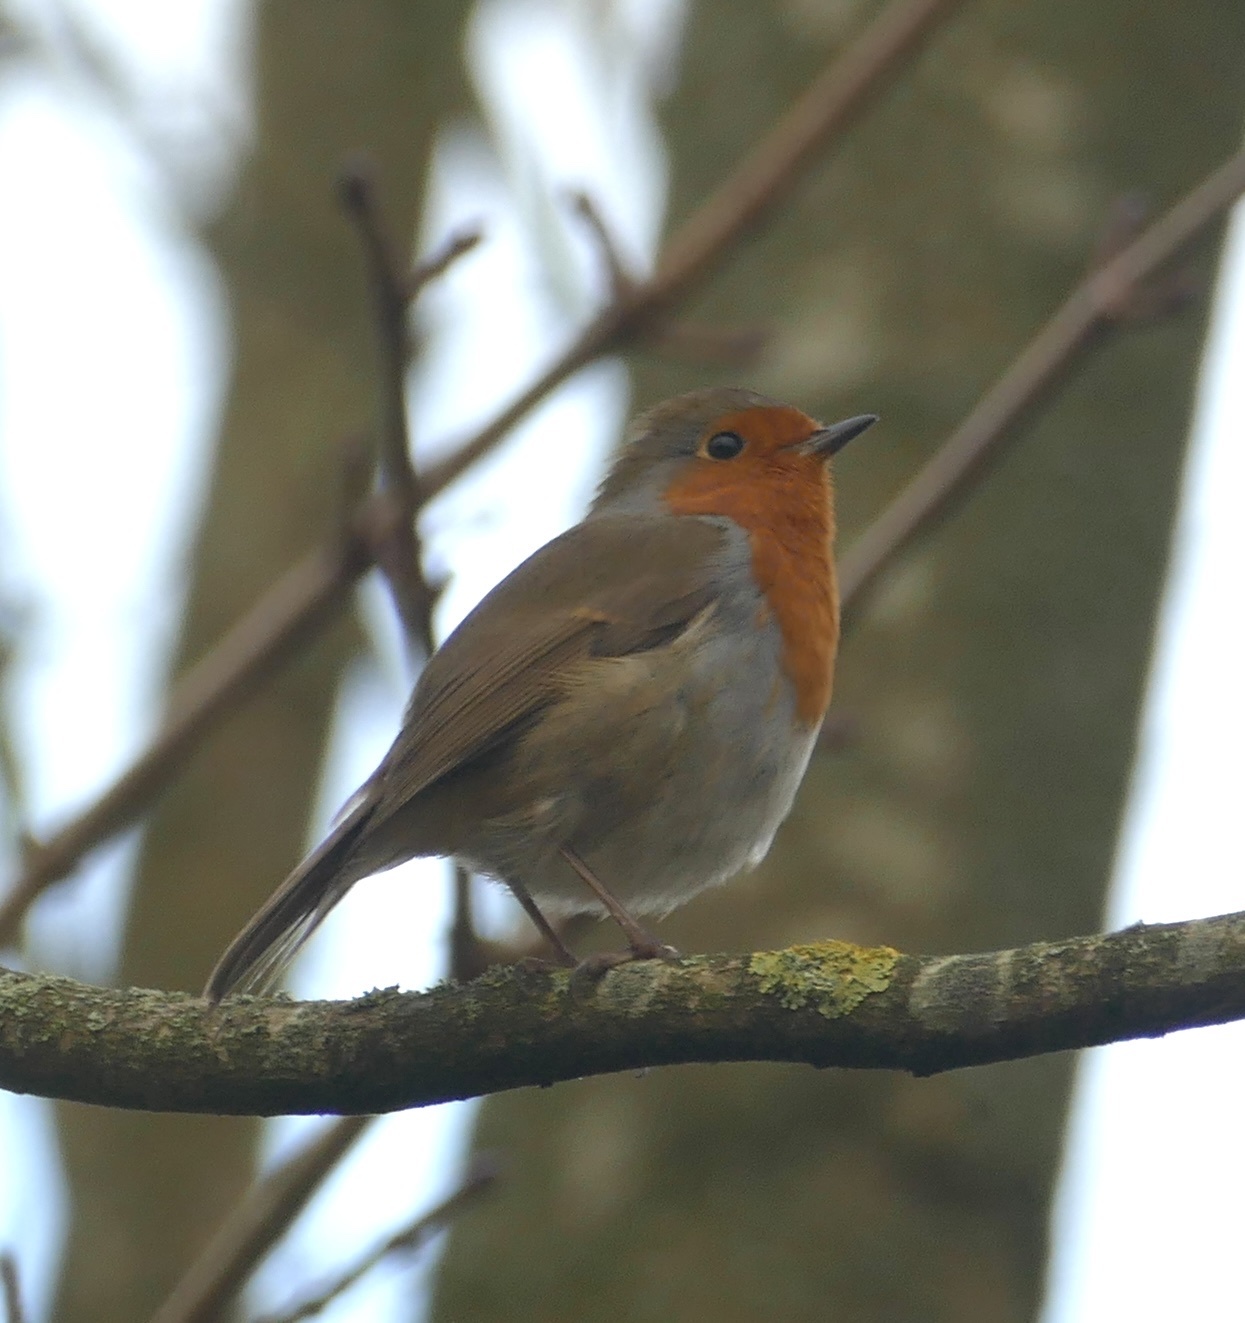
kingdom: Animalia
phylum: Chordata
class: Aves
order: Passeriformes
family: Muscicapidae
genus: Erithacus
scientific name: Erithacus rubecula
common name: European robin
